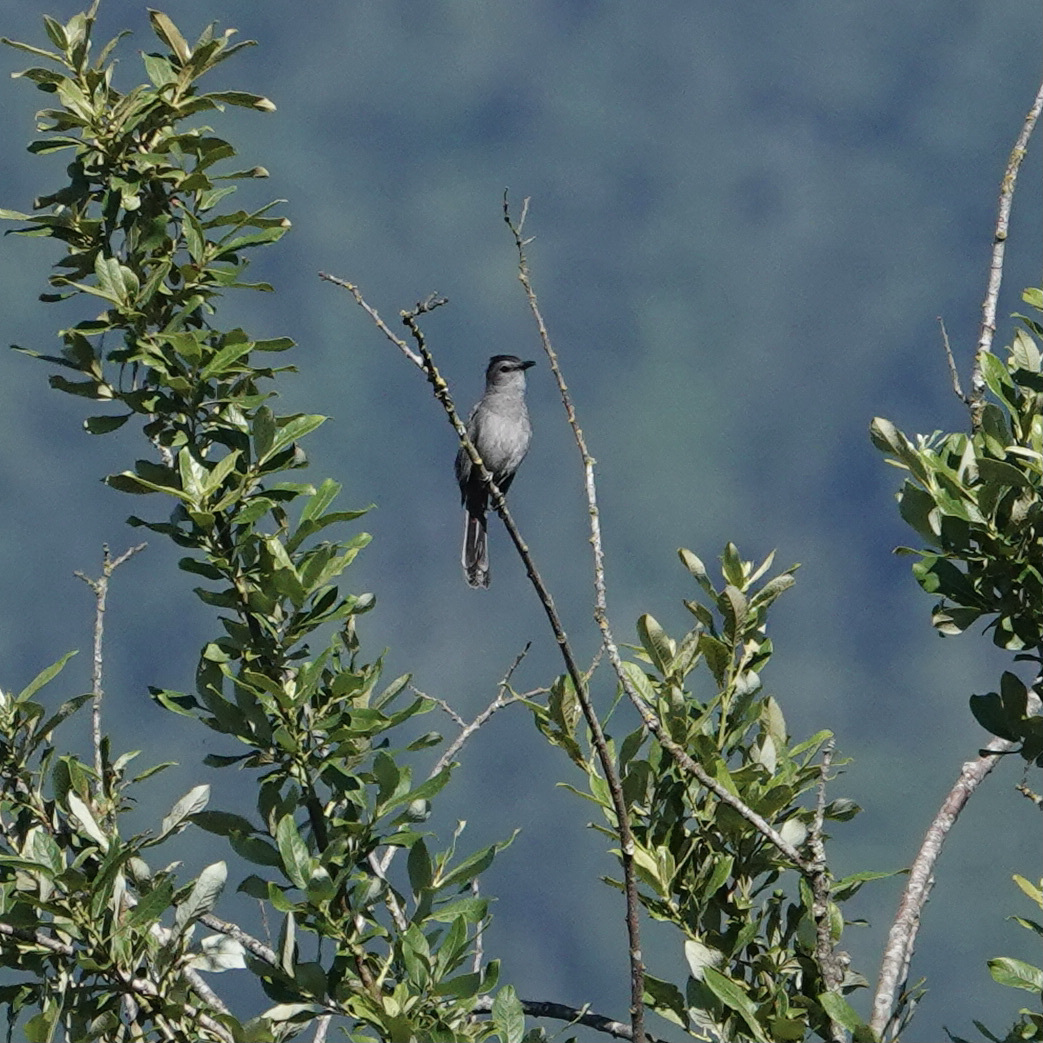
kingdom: Animalia
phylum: Chordata
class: Aves
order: Passeriformes
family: Mimidae
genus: Dumetella
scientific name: Dumetella carolinensis
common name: Gray catbird
